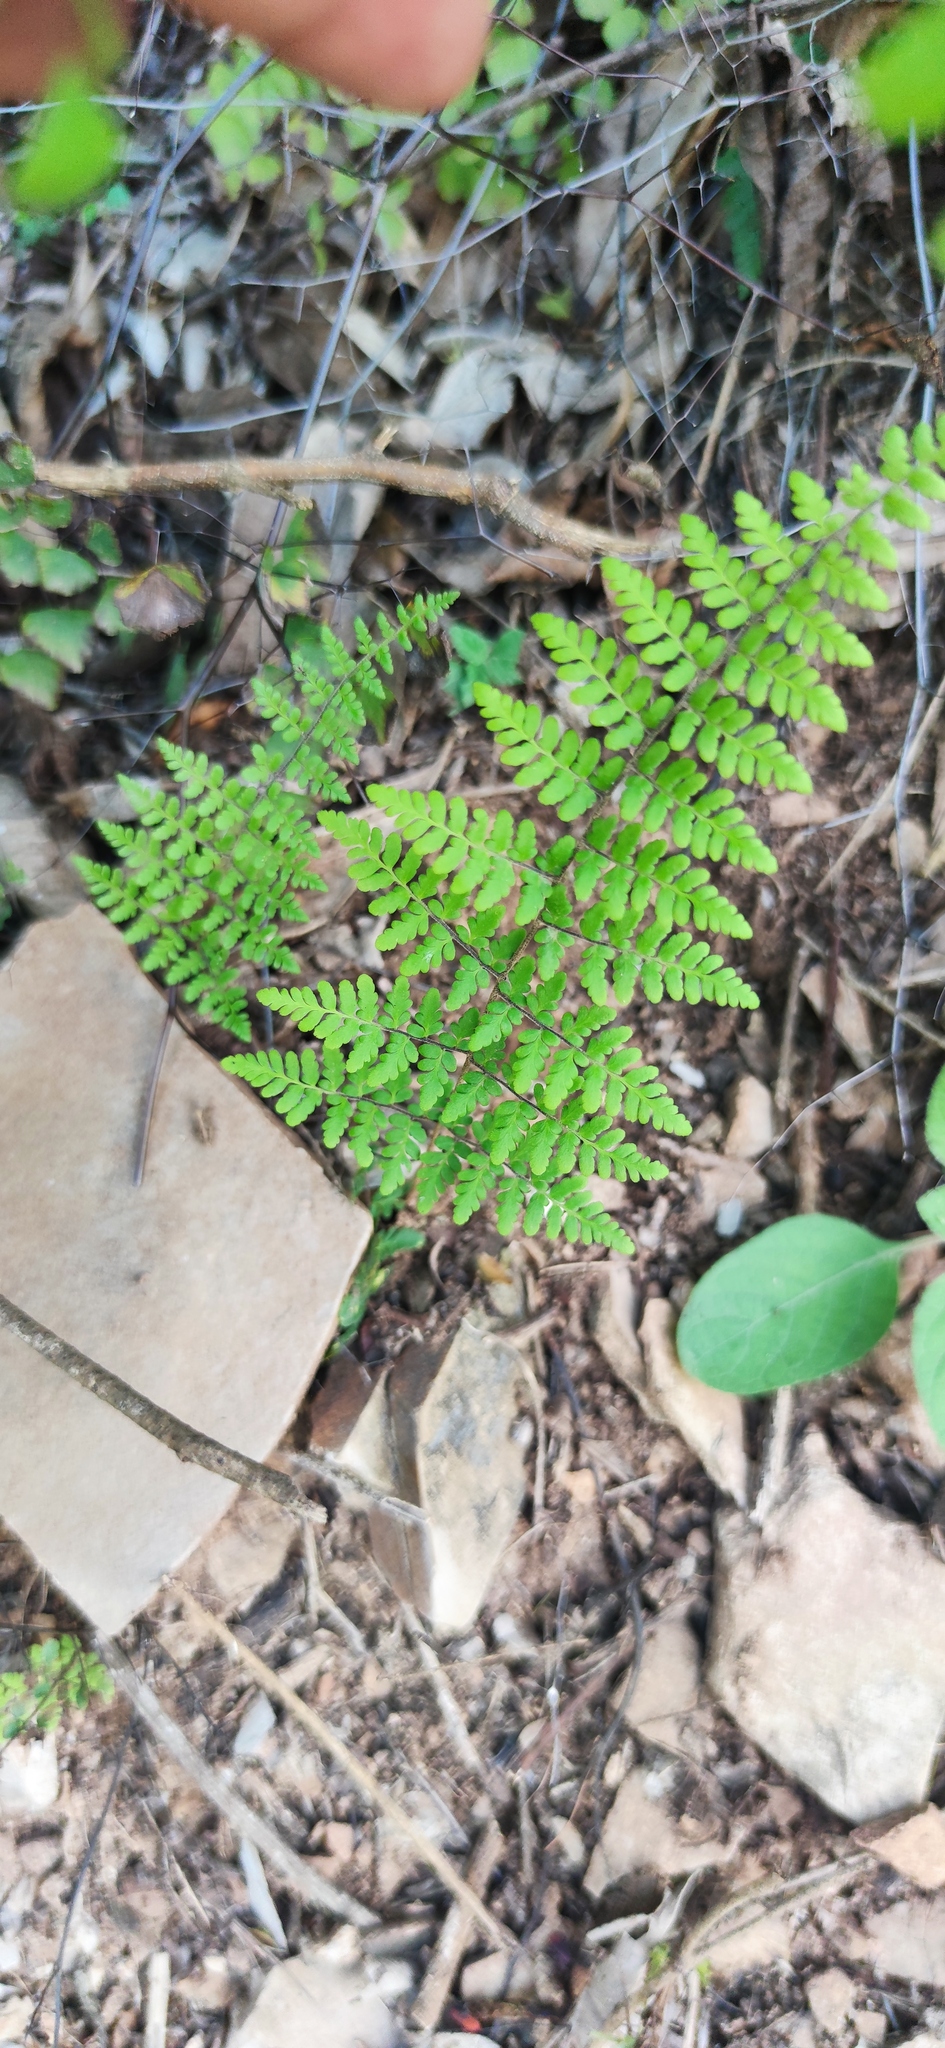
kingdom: Plantae
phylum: Tracheophyta
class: Polypodiopsida
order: Polypodiales
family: Pteridaceae
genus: Myriopteris
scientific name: Myriopteris alabamensis
